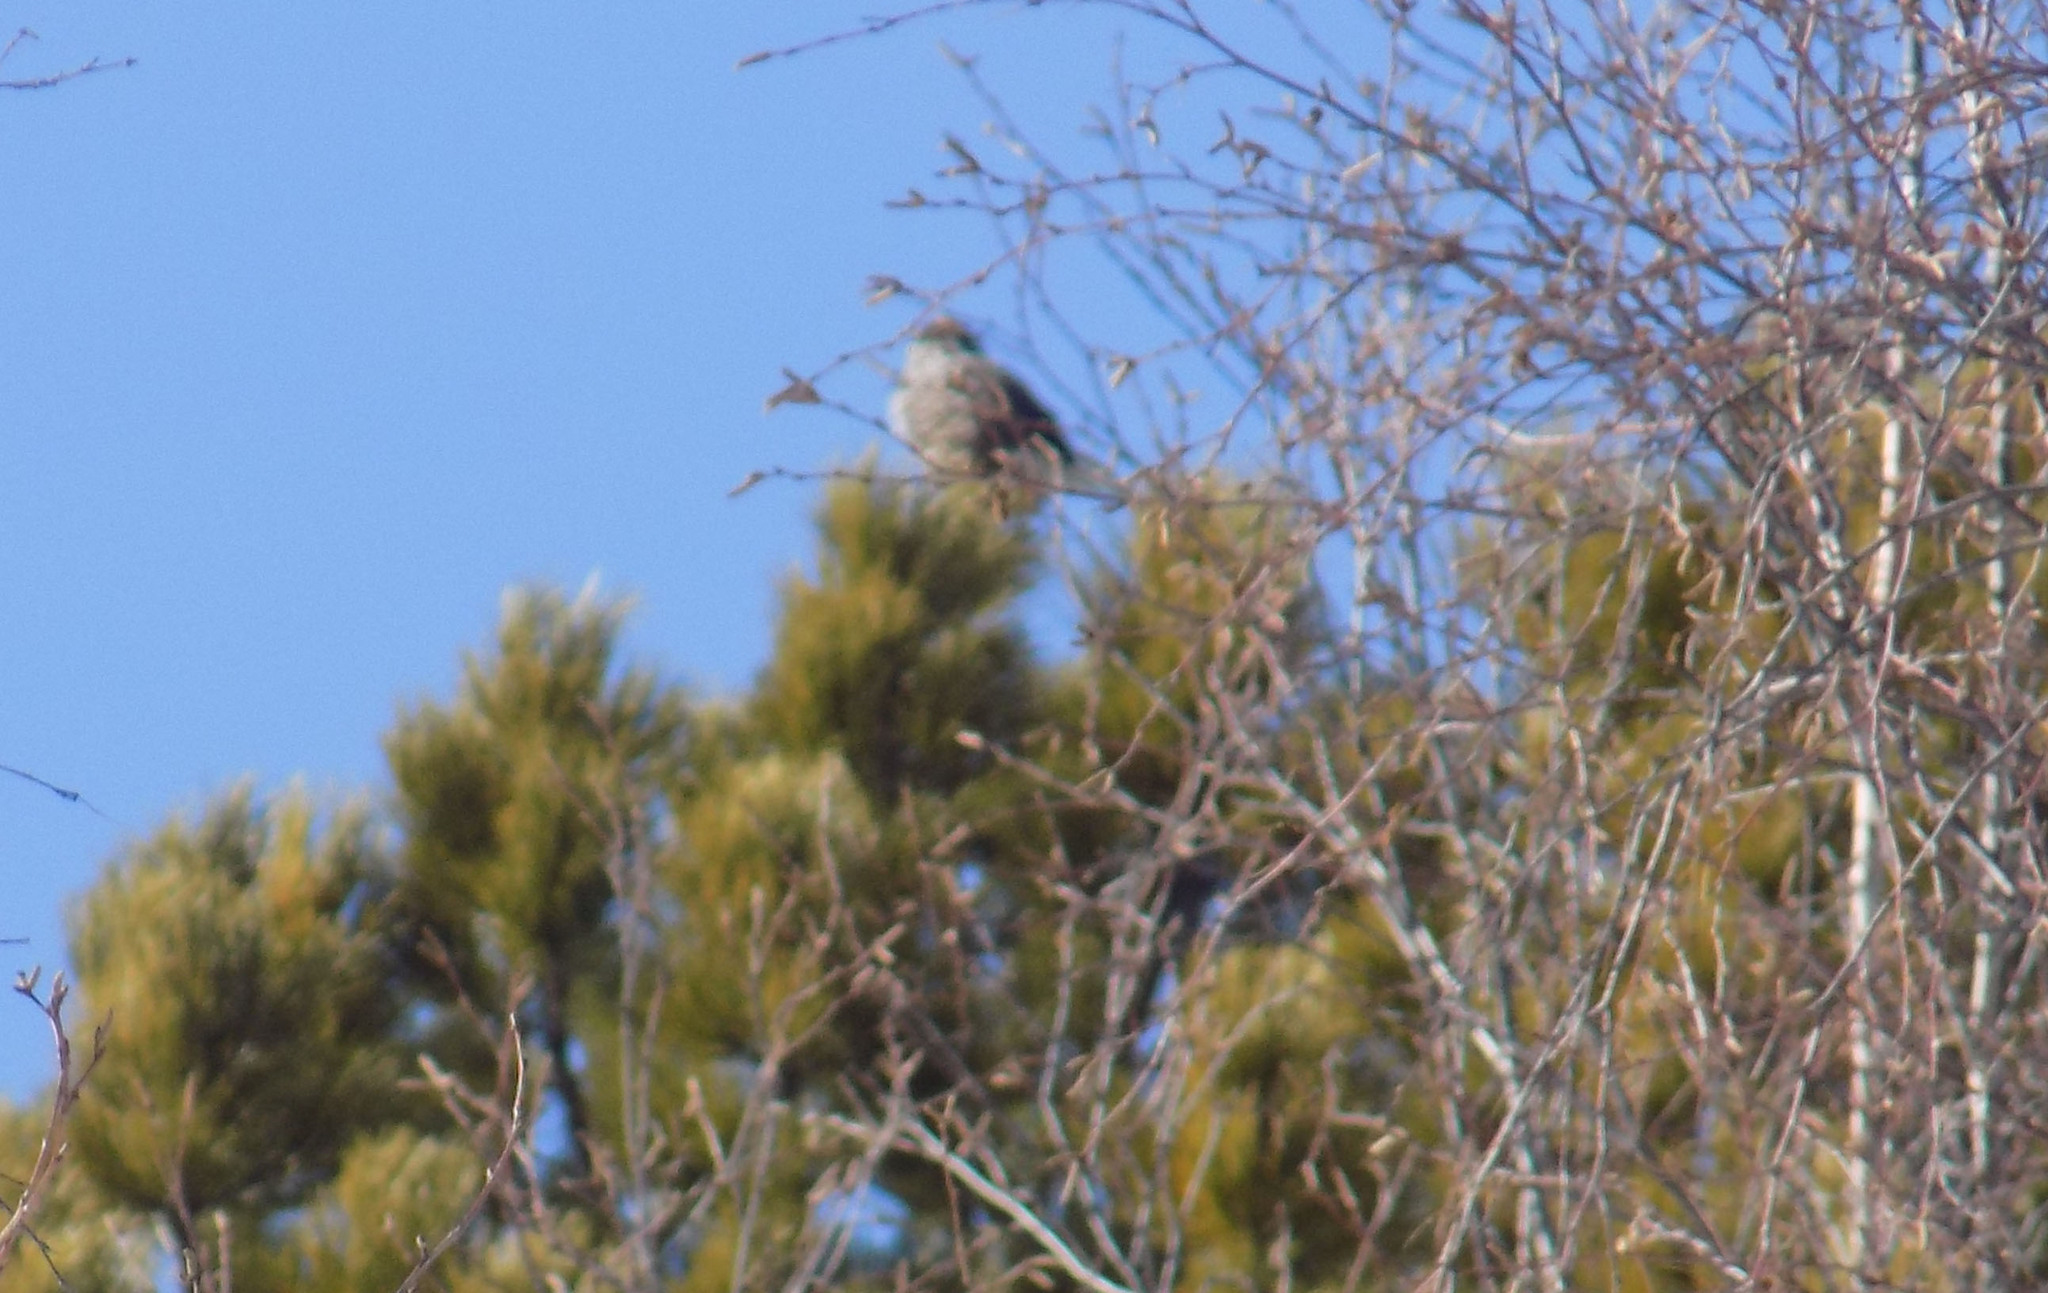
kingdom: Animalia
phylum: Chordata
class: Aves
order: Galliformes
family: Phasianidae
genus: Tetrastes
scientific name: Tetrastes bonasia
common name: Hazel grouse
